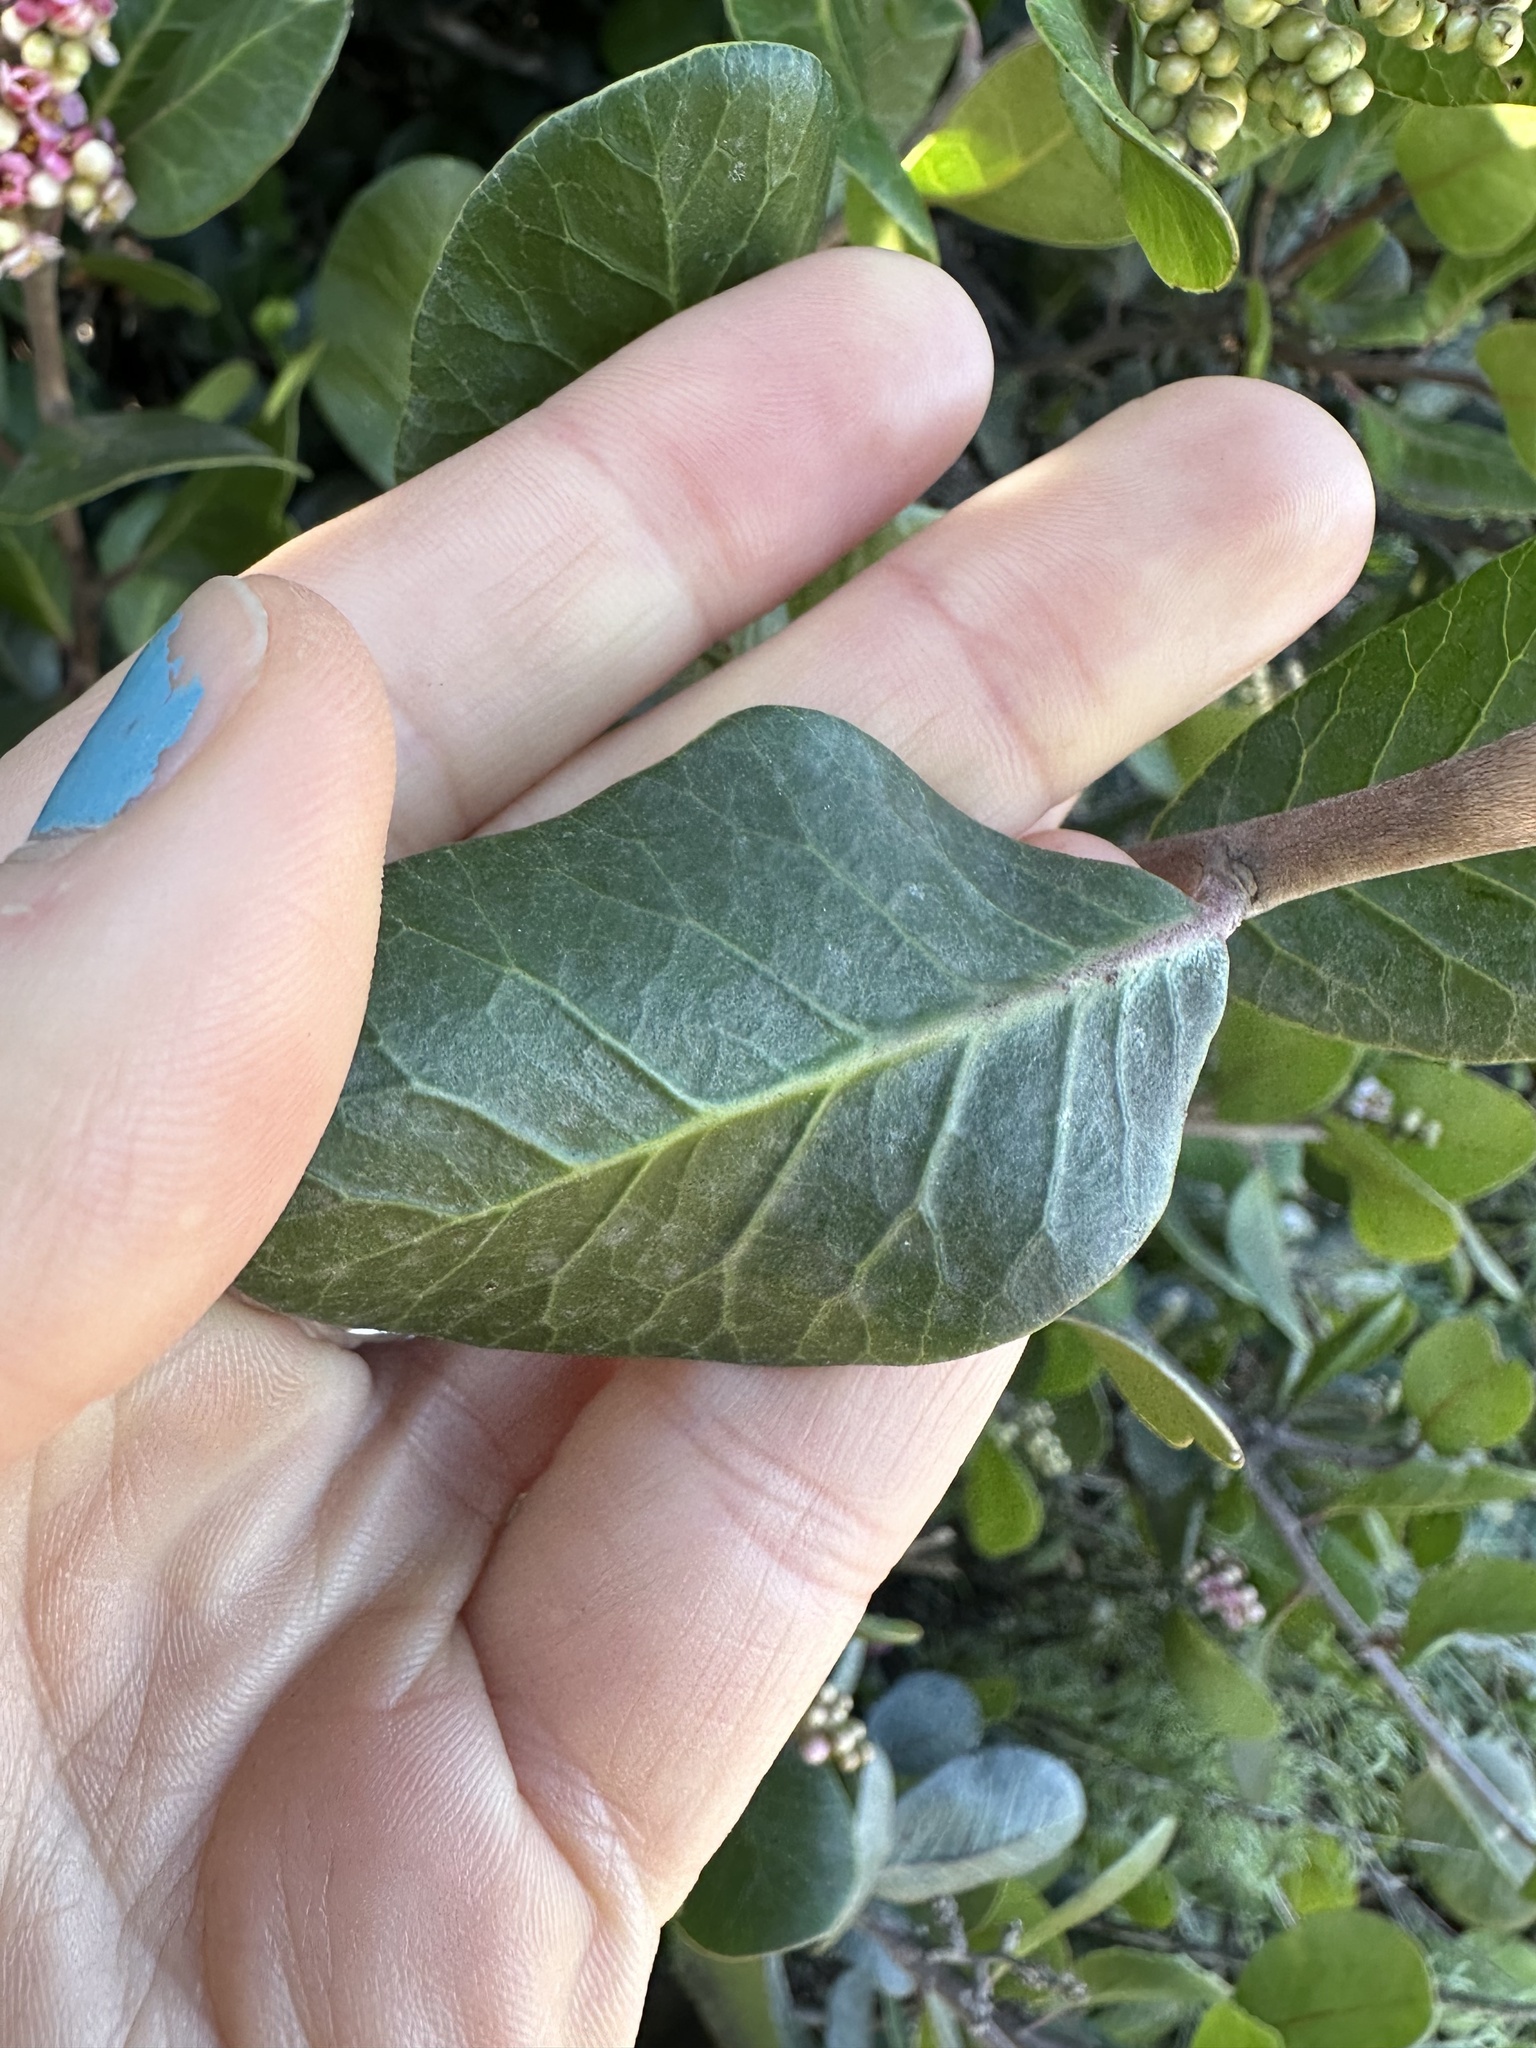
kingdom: Plantae
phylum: Tracheophyta
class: Magnoliopsida
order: Sapindales
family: Anacardiaceae
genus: Rhus
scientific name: Rhus integrifolia
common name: Lemonade sumac
